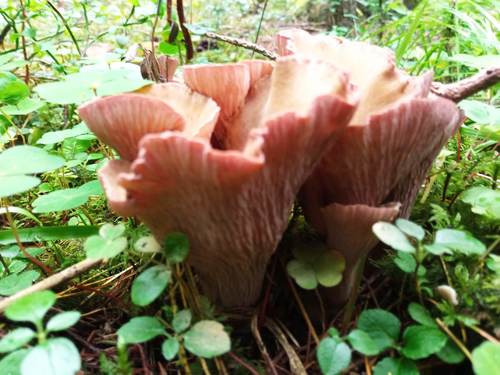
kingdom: Fungi
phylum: Basidiomycota
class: Agaricomycetes
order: Gomphales
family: Gomphaceae
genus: Gomphus
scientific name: Gomphus clavatus
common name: Pig's ear
